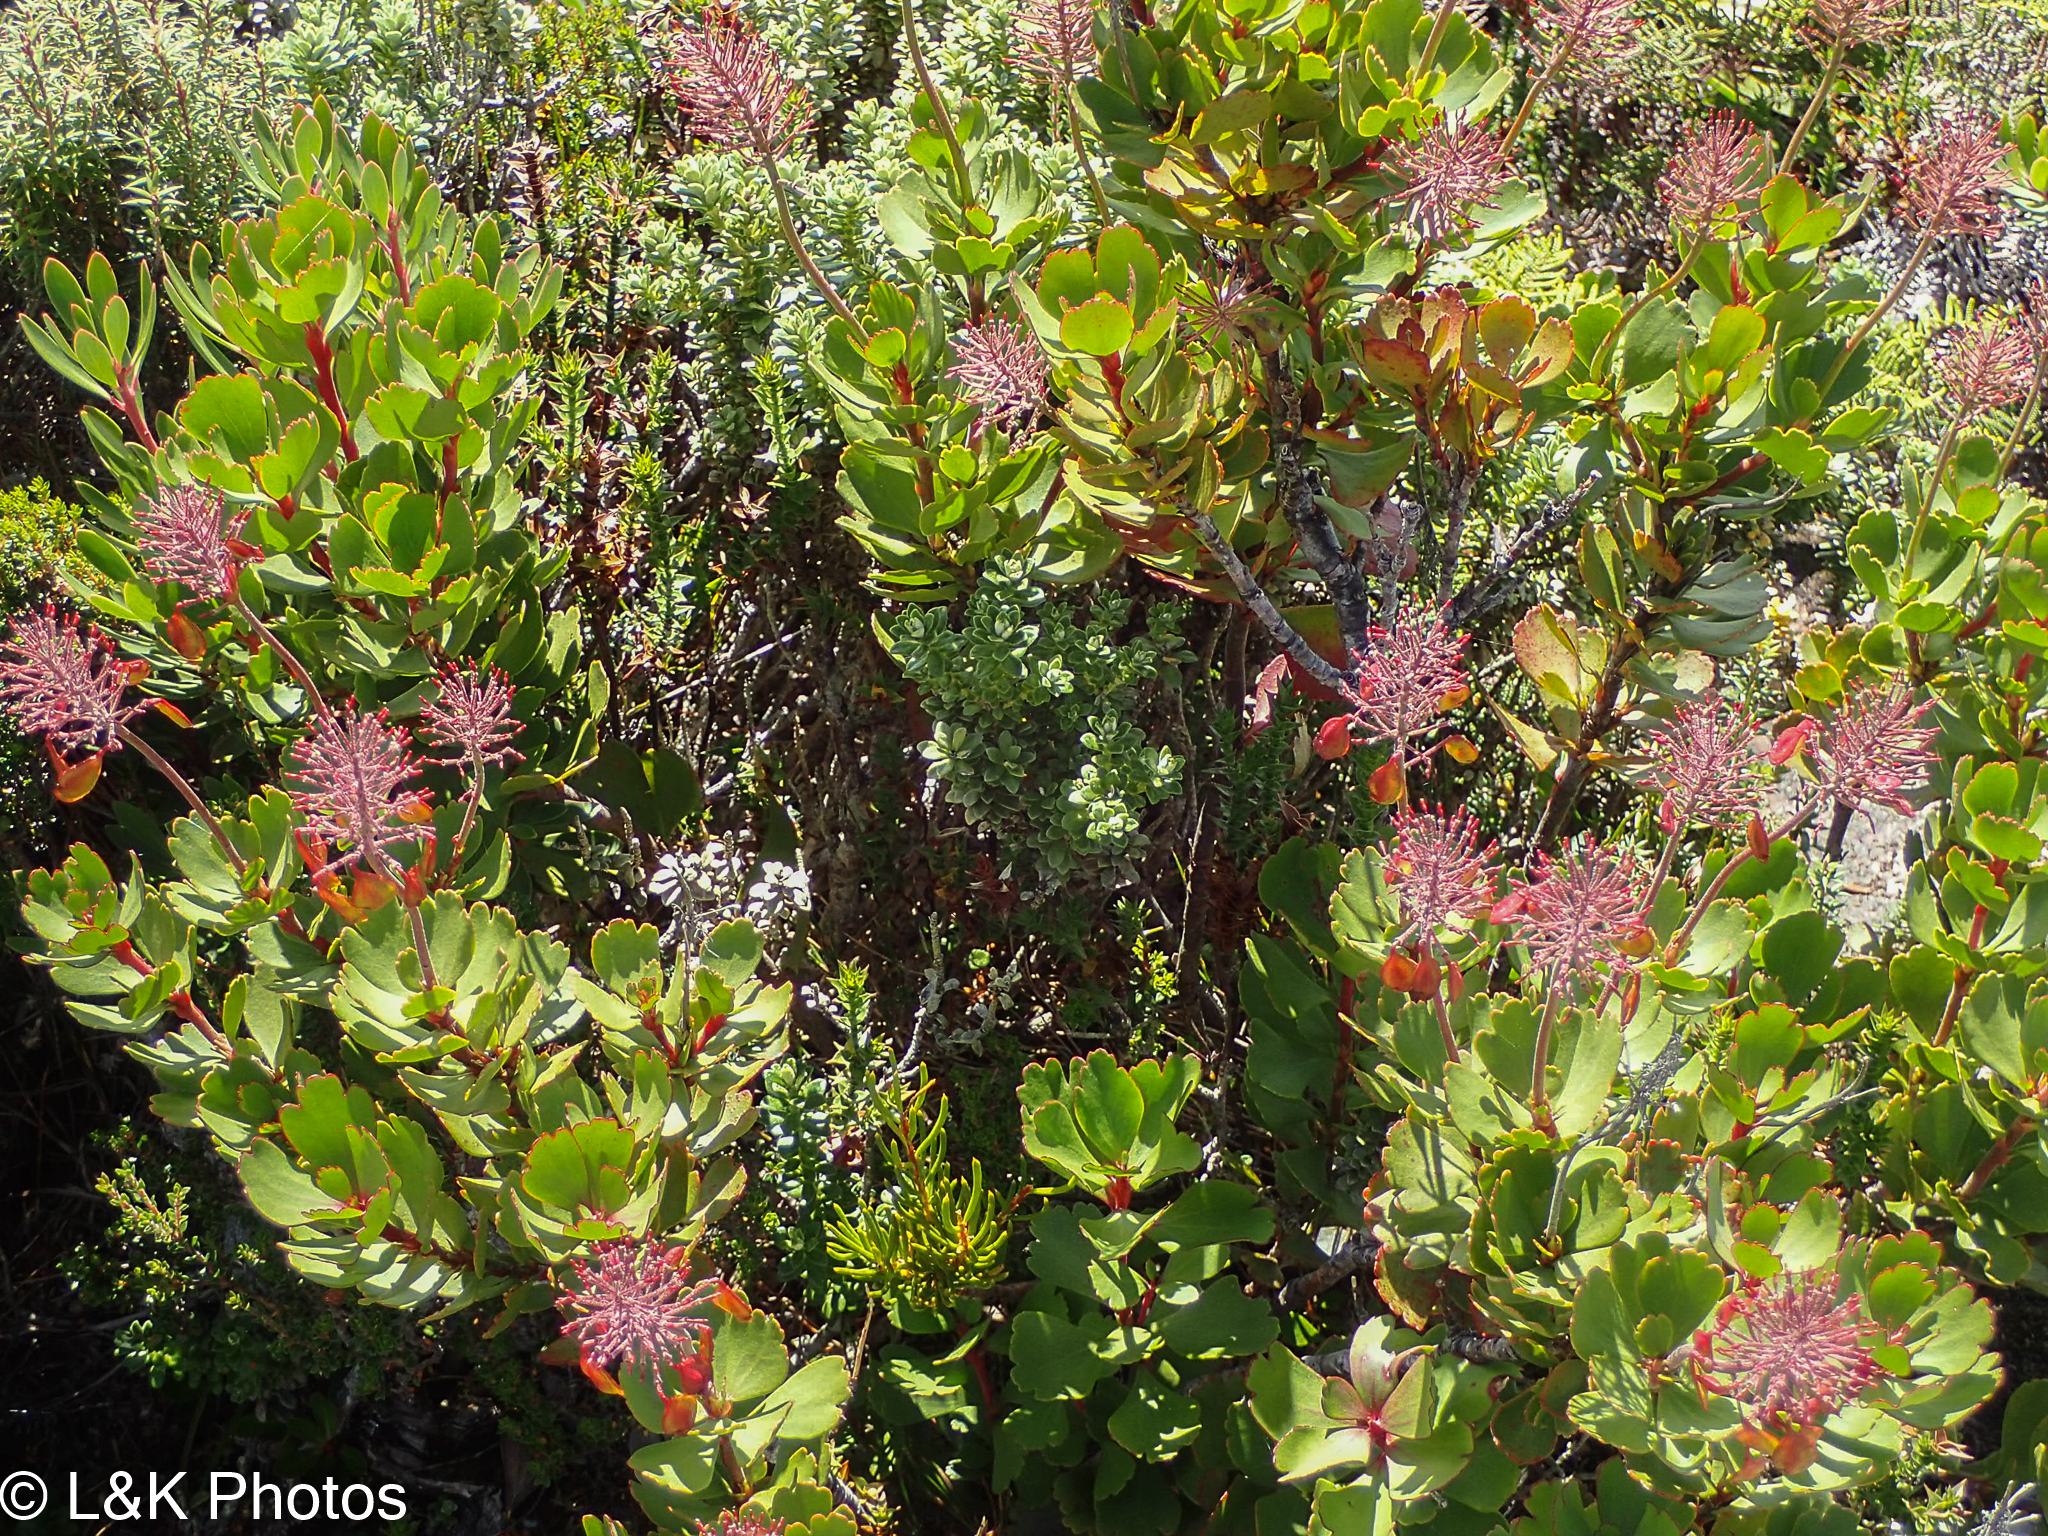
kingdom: Plantae
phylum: Tracheophyta
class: Magnoliopsida
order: Proteales
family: Proteaceae
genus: Bellendena
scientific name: Bellendena montana
